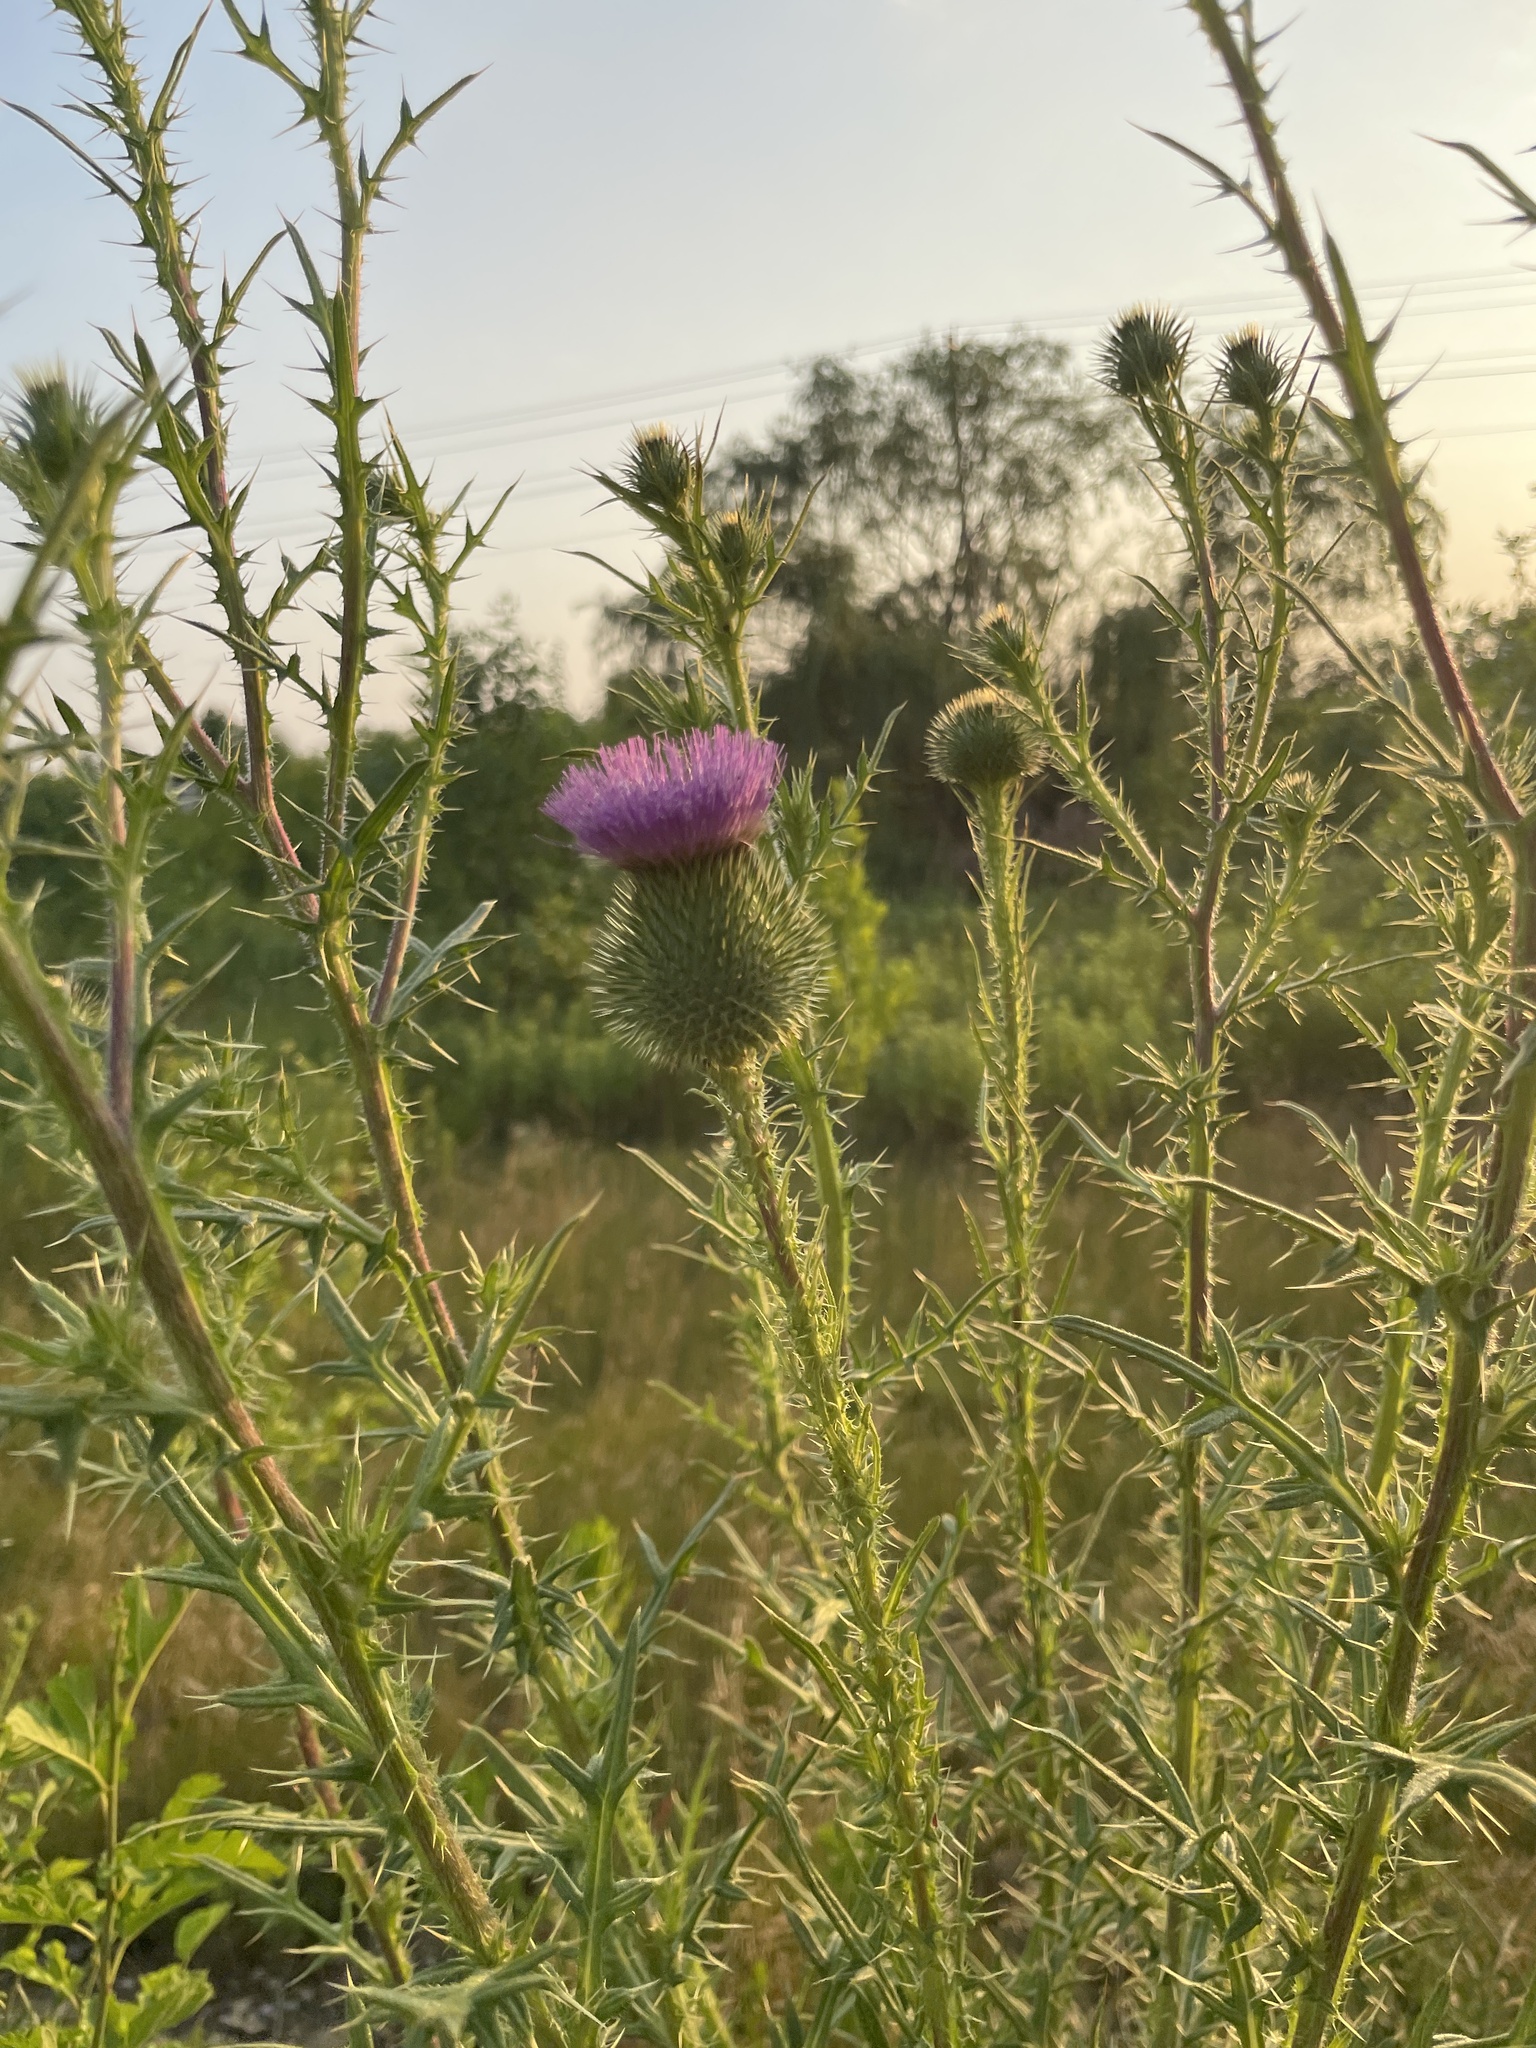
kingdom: Plantae
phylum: Tracheophyta
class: Magnoliopsida
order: Asterales
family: Asteraceae
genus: Cirsium
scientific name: Cirsium vulgare
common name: Bull thistle
